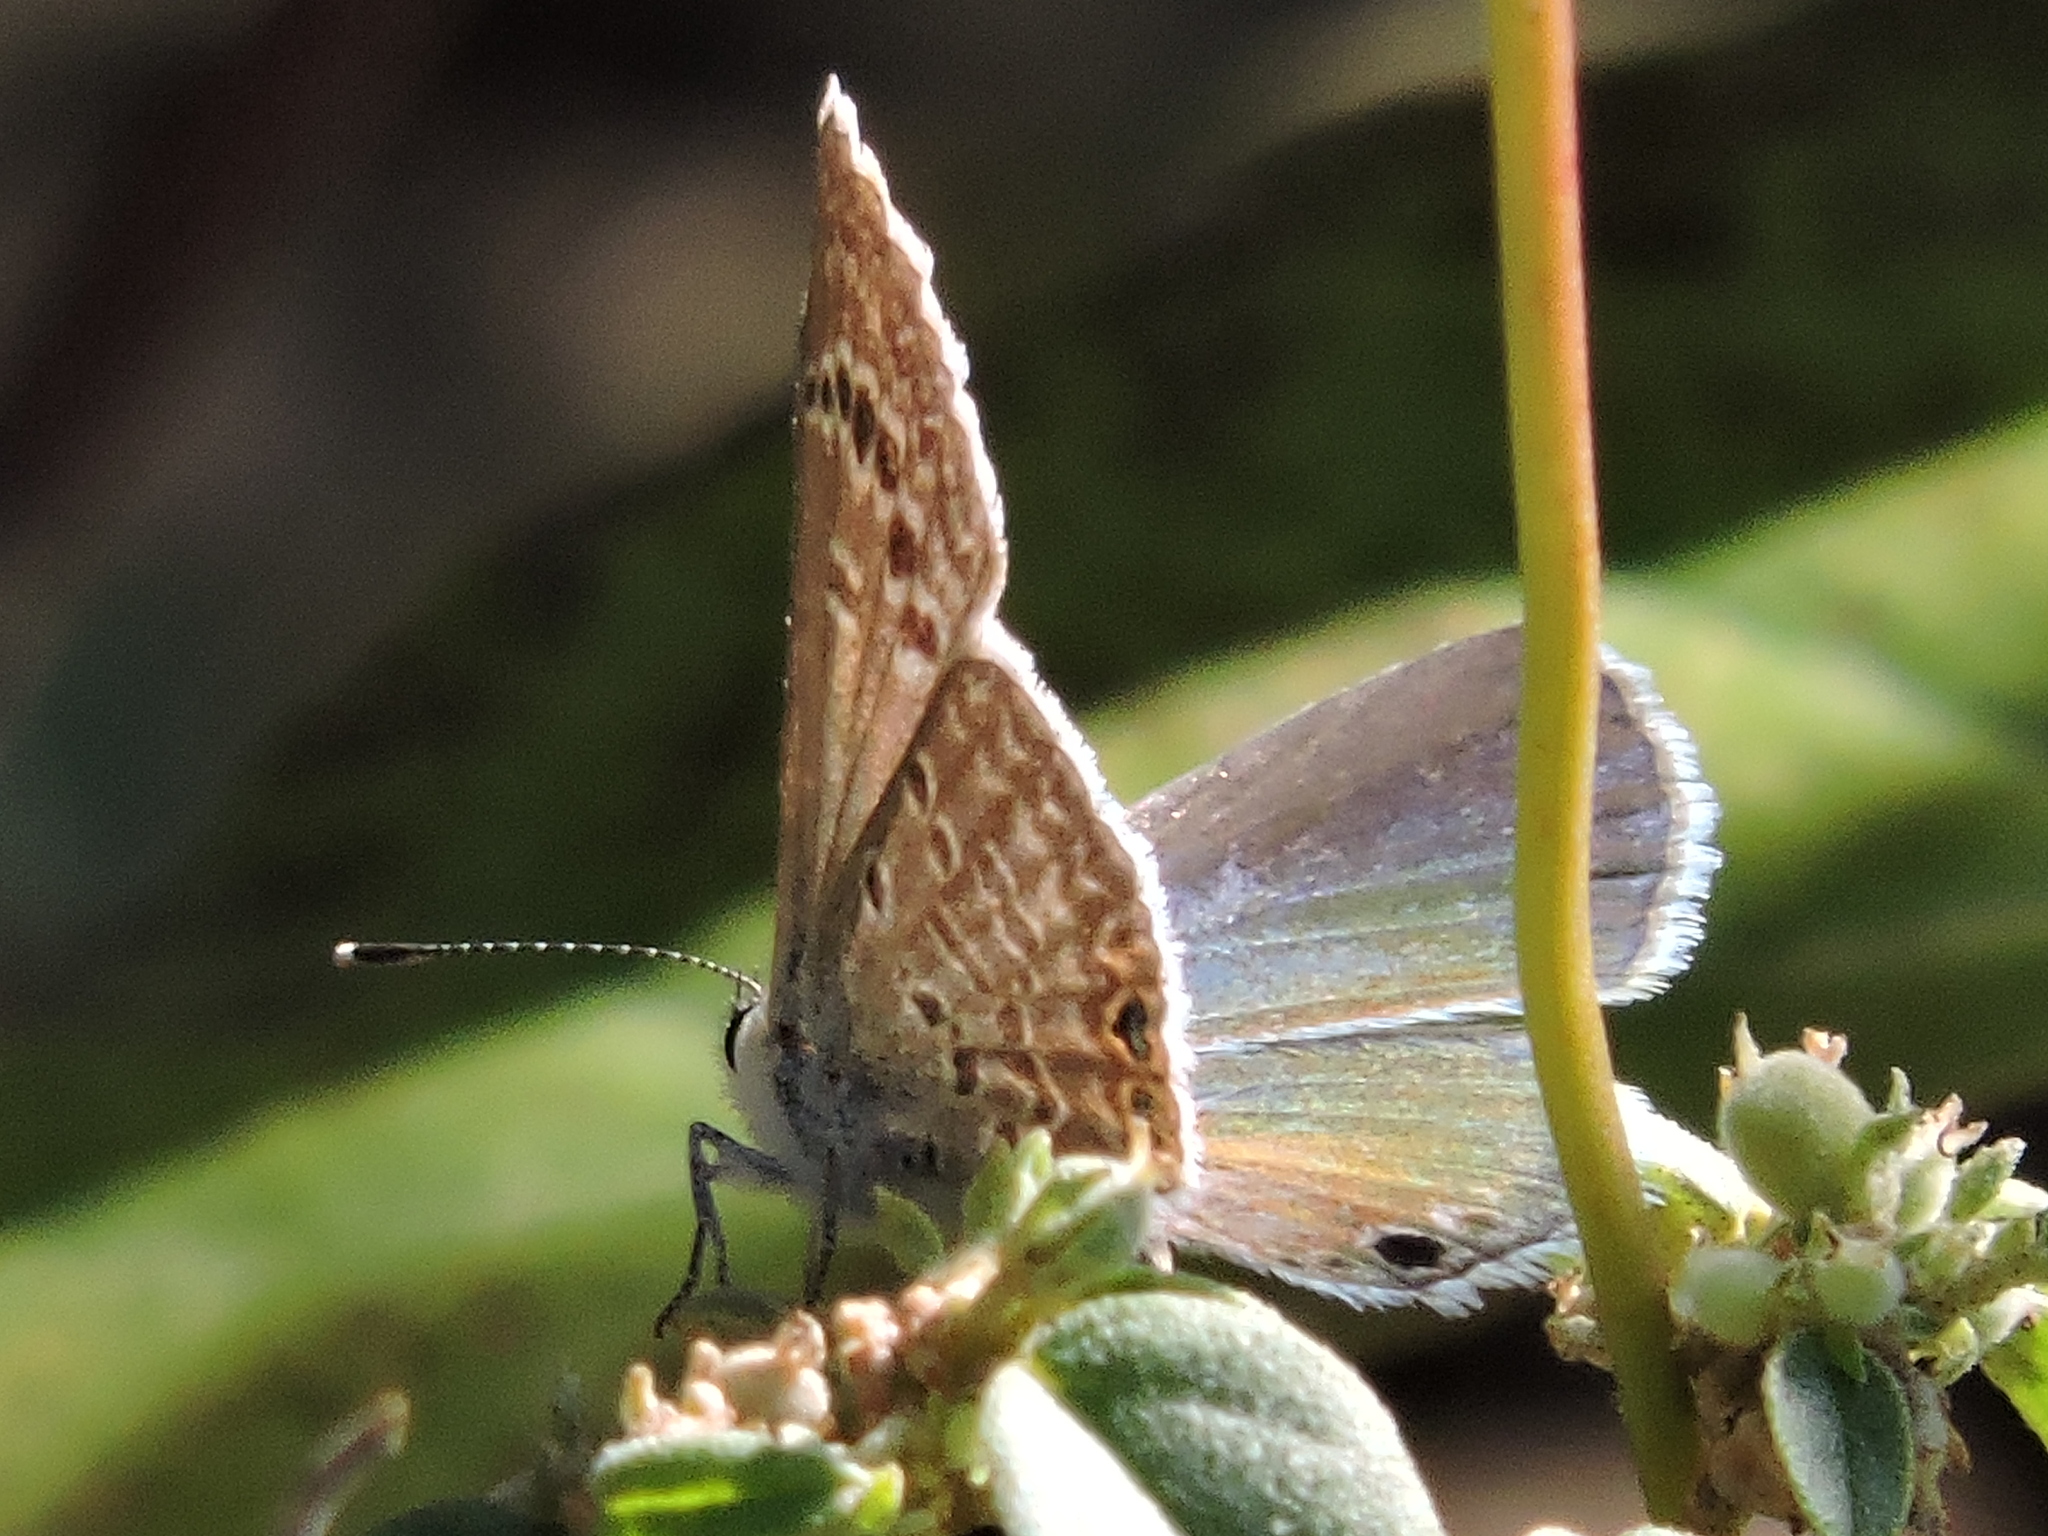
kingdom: Animalia
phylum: Arthropoda
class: Insecta
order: Lepidoptera
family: Lycaenidae
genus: Echinargus
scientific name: Echinargus isola
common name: Reakirt's blue
